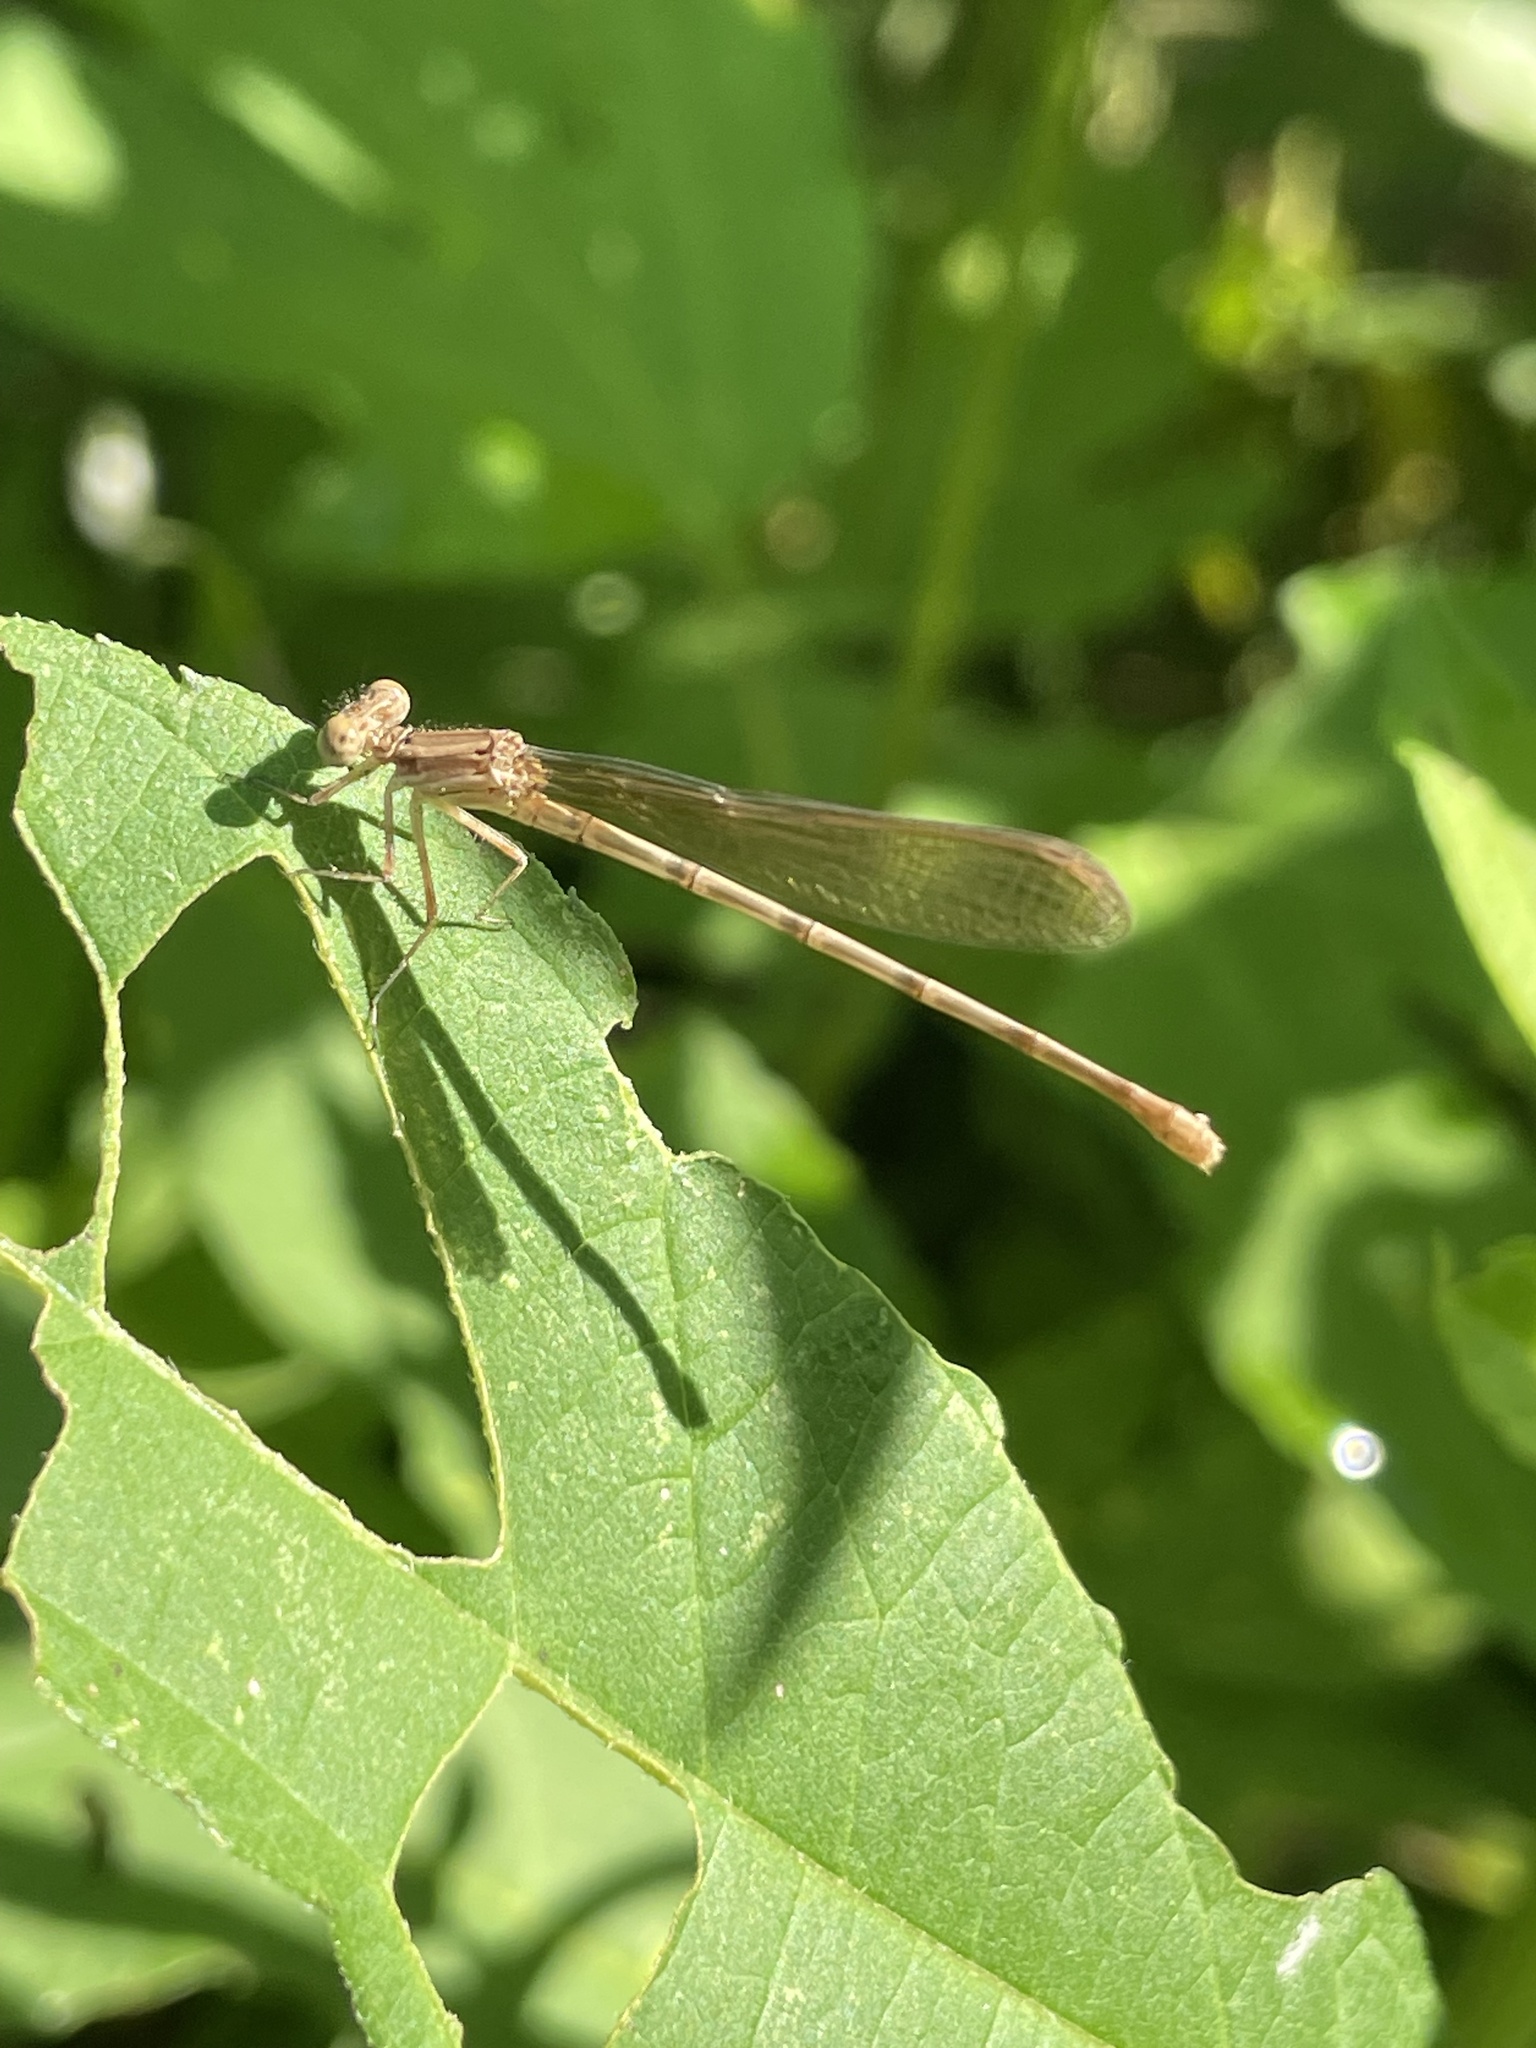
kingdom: Animalia
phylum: Arthropoda
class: Insecta
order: Odonata
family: Coenagrionidae
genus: Argia
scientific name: Argia sedula
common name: Blue-ringed dancer
